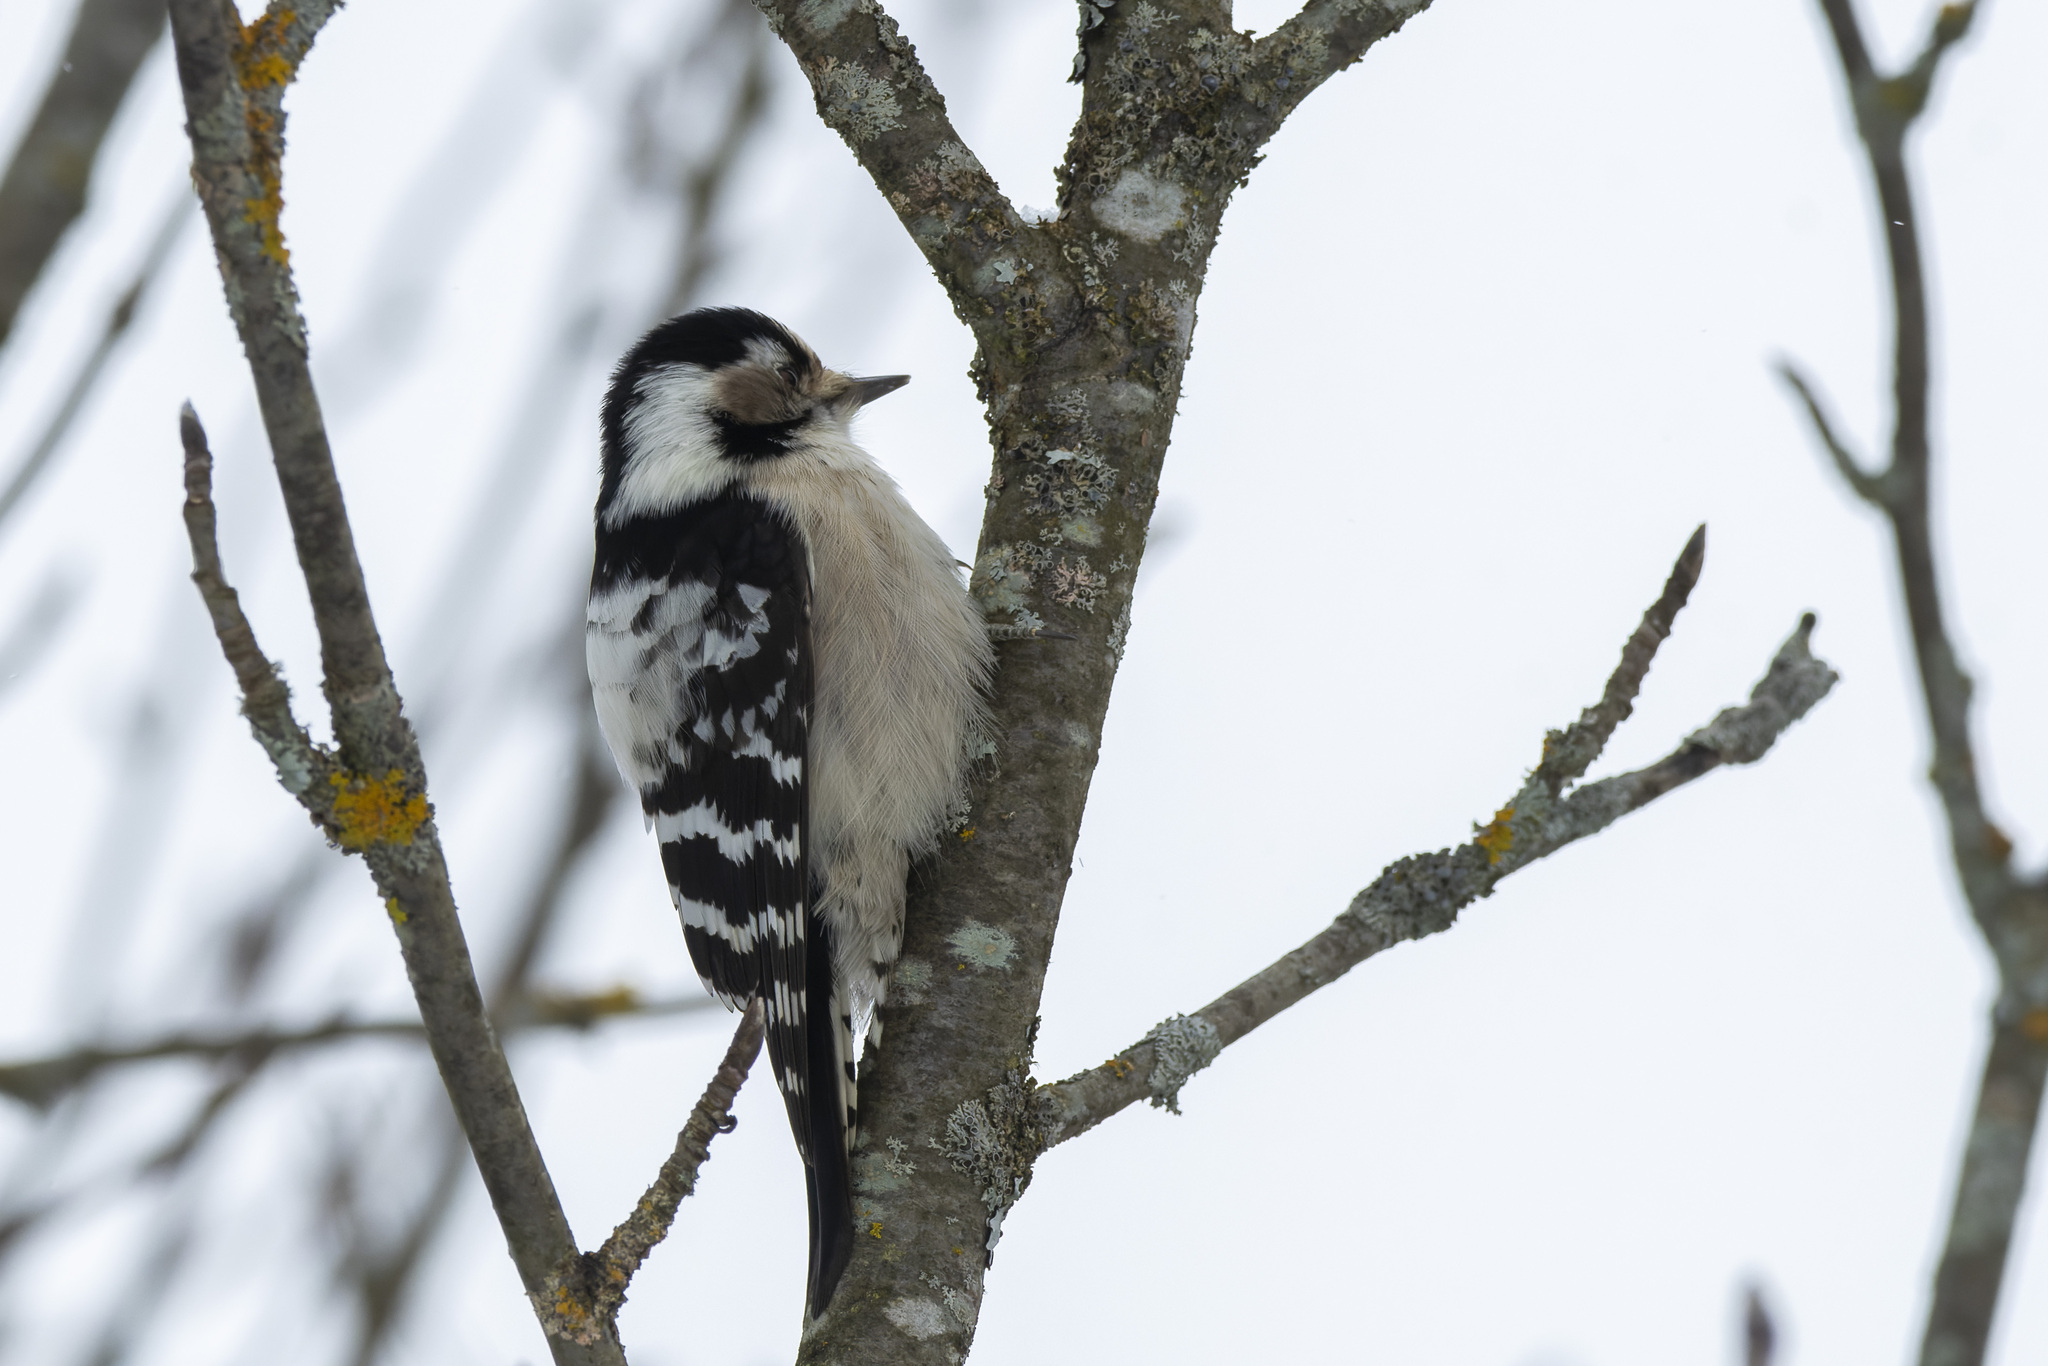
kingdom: Animalia
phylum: Chordata
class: Aves
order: Piciformes
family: Picidae
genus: Dryobates
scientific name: Dryobates minor
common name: Lesser spotted woodpecker
